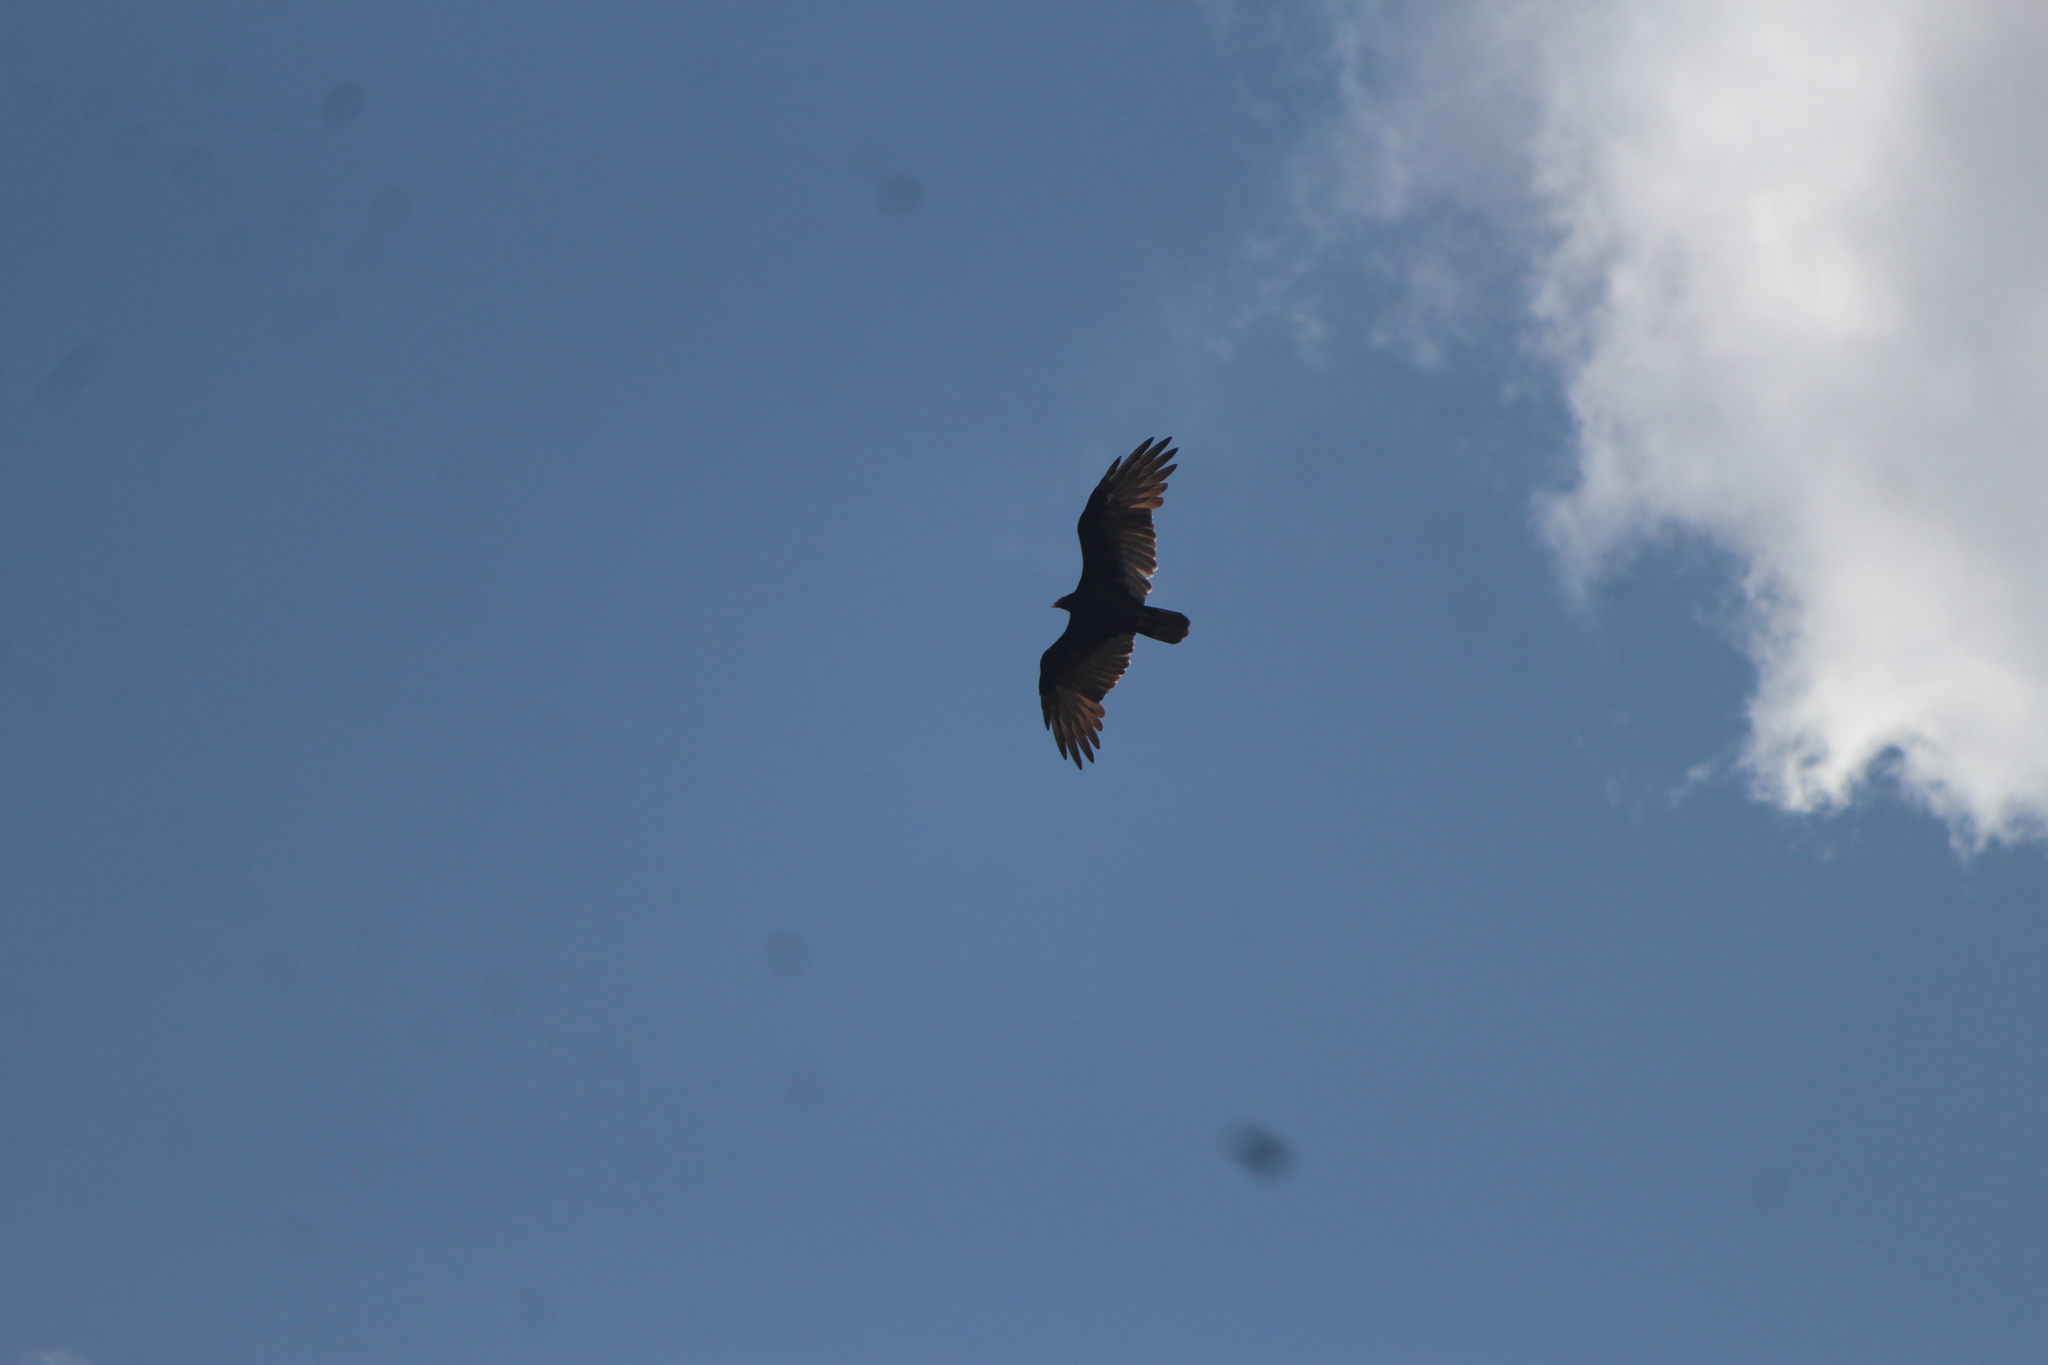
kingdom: Animalia
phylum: Chordata
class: Aves
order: Accipitriformes
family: Cathartidae
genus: Cathartes
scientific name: Cathartes aura
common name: Turkey vulture
